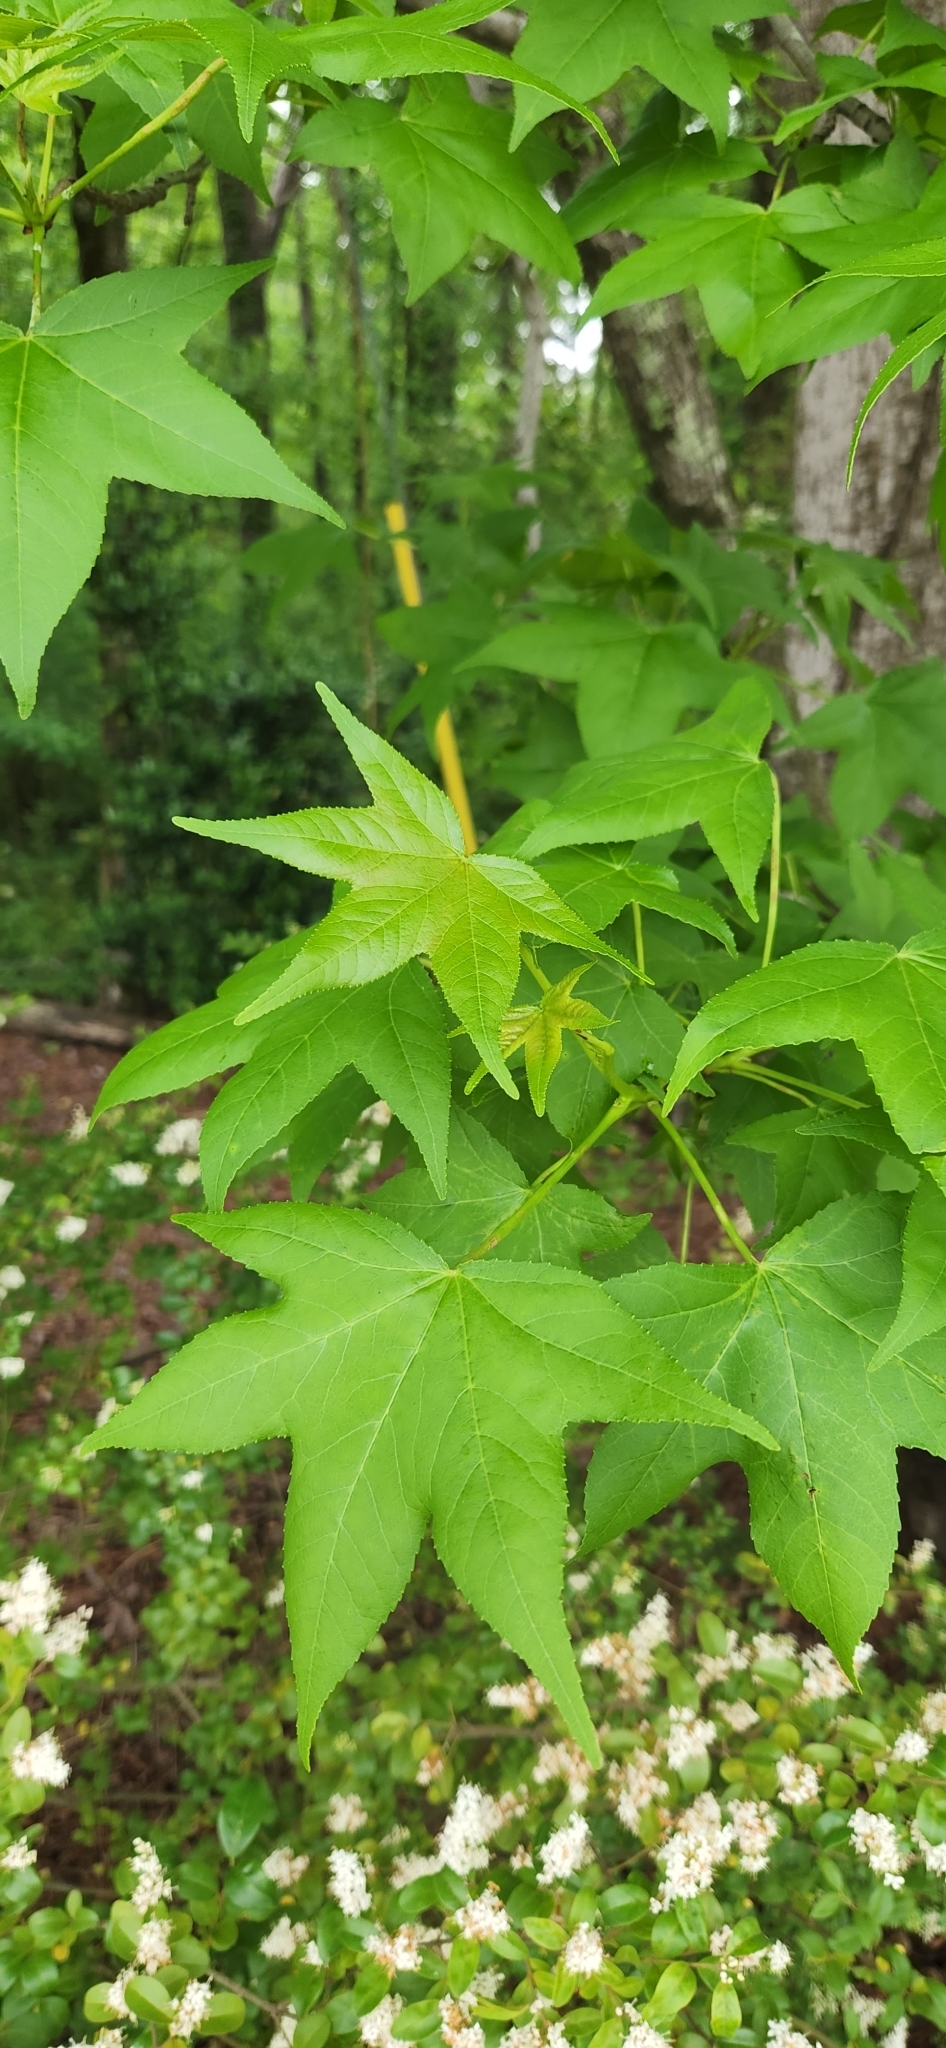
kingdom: Plantae
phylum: Tracheophyta
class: Magnoliopsida
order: Saxifragales
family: Altingiaceae
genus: Liquidambar
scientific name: Liquidambar styraciflua
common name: Sweet gum
